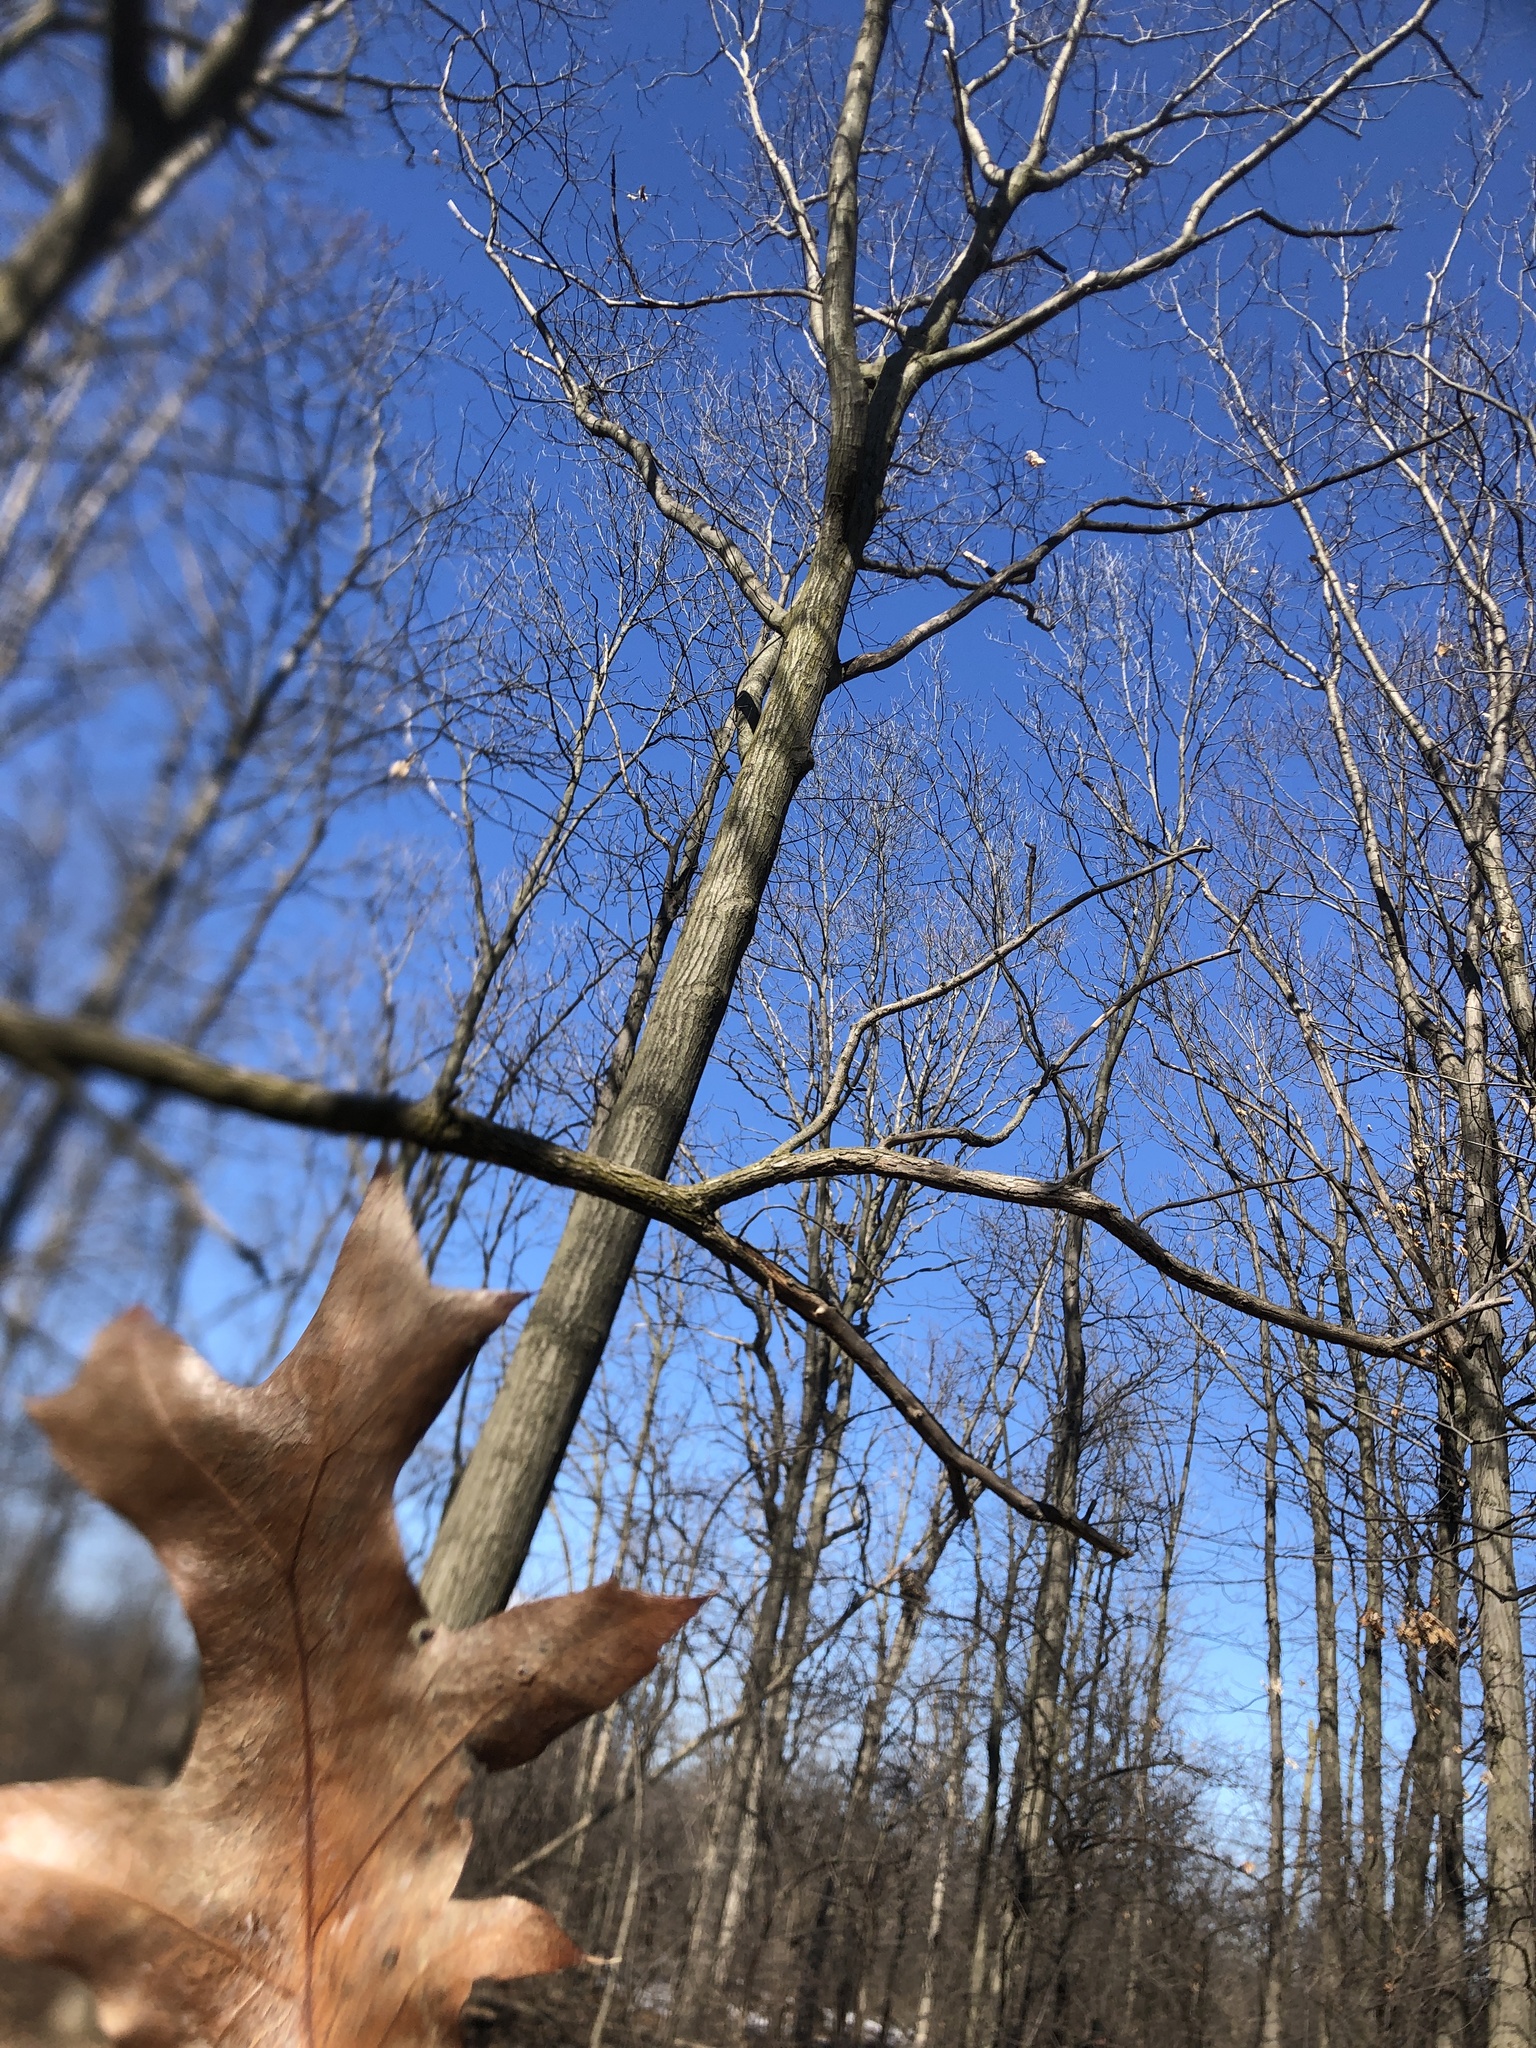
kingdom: Plantae
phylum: Tracheophyta
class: Magnoliopsida
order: Fagales
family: Fagaceae
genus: Quercus
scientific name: Quercus rubra
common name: Red oak
